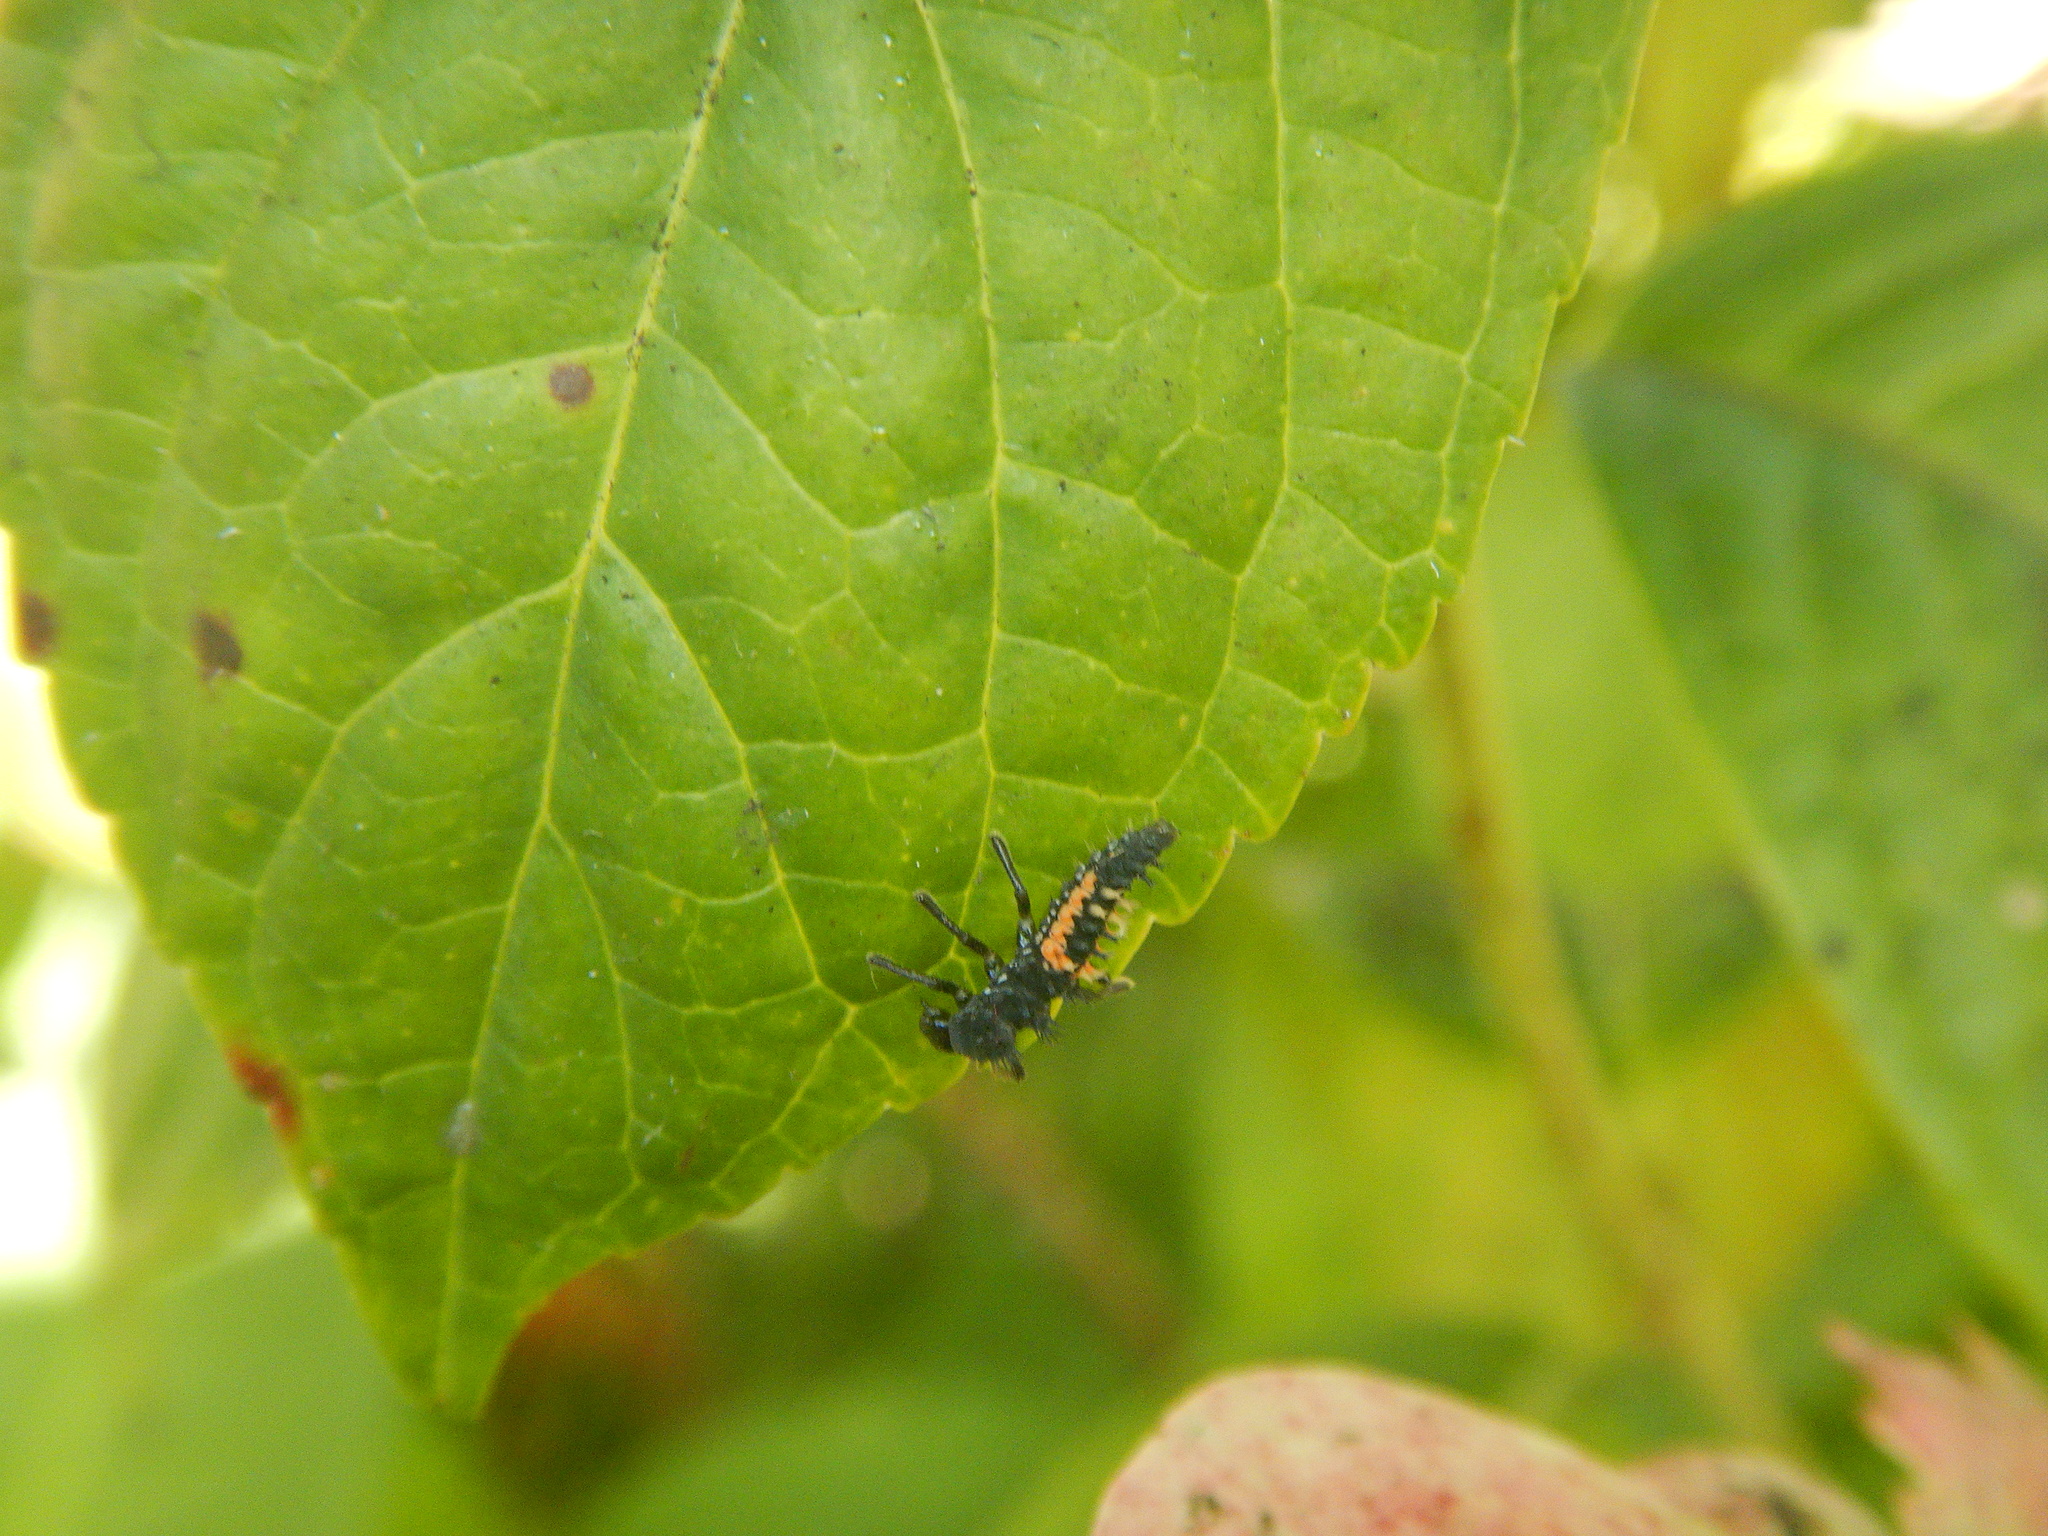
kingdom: Animalia
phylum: Arthropoda
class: Insecta
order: Coleoptera
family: Coccinellidae
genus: Harmonia
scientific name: Harmonia axyridis
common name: Harlequin ladybird
